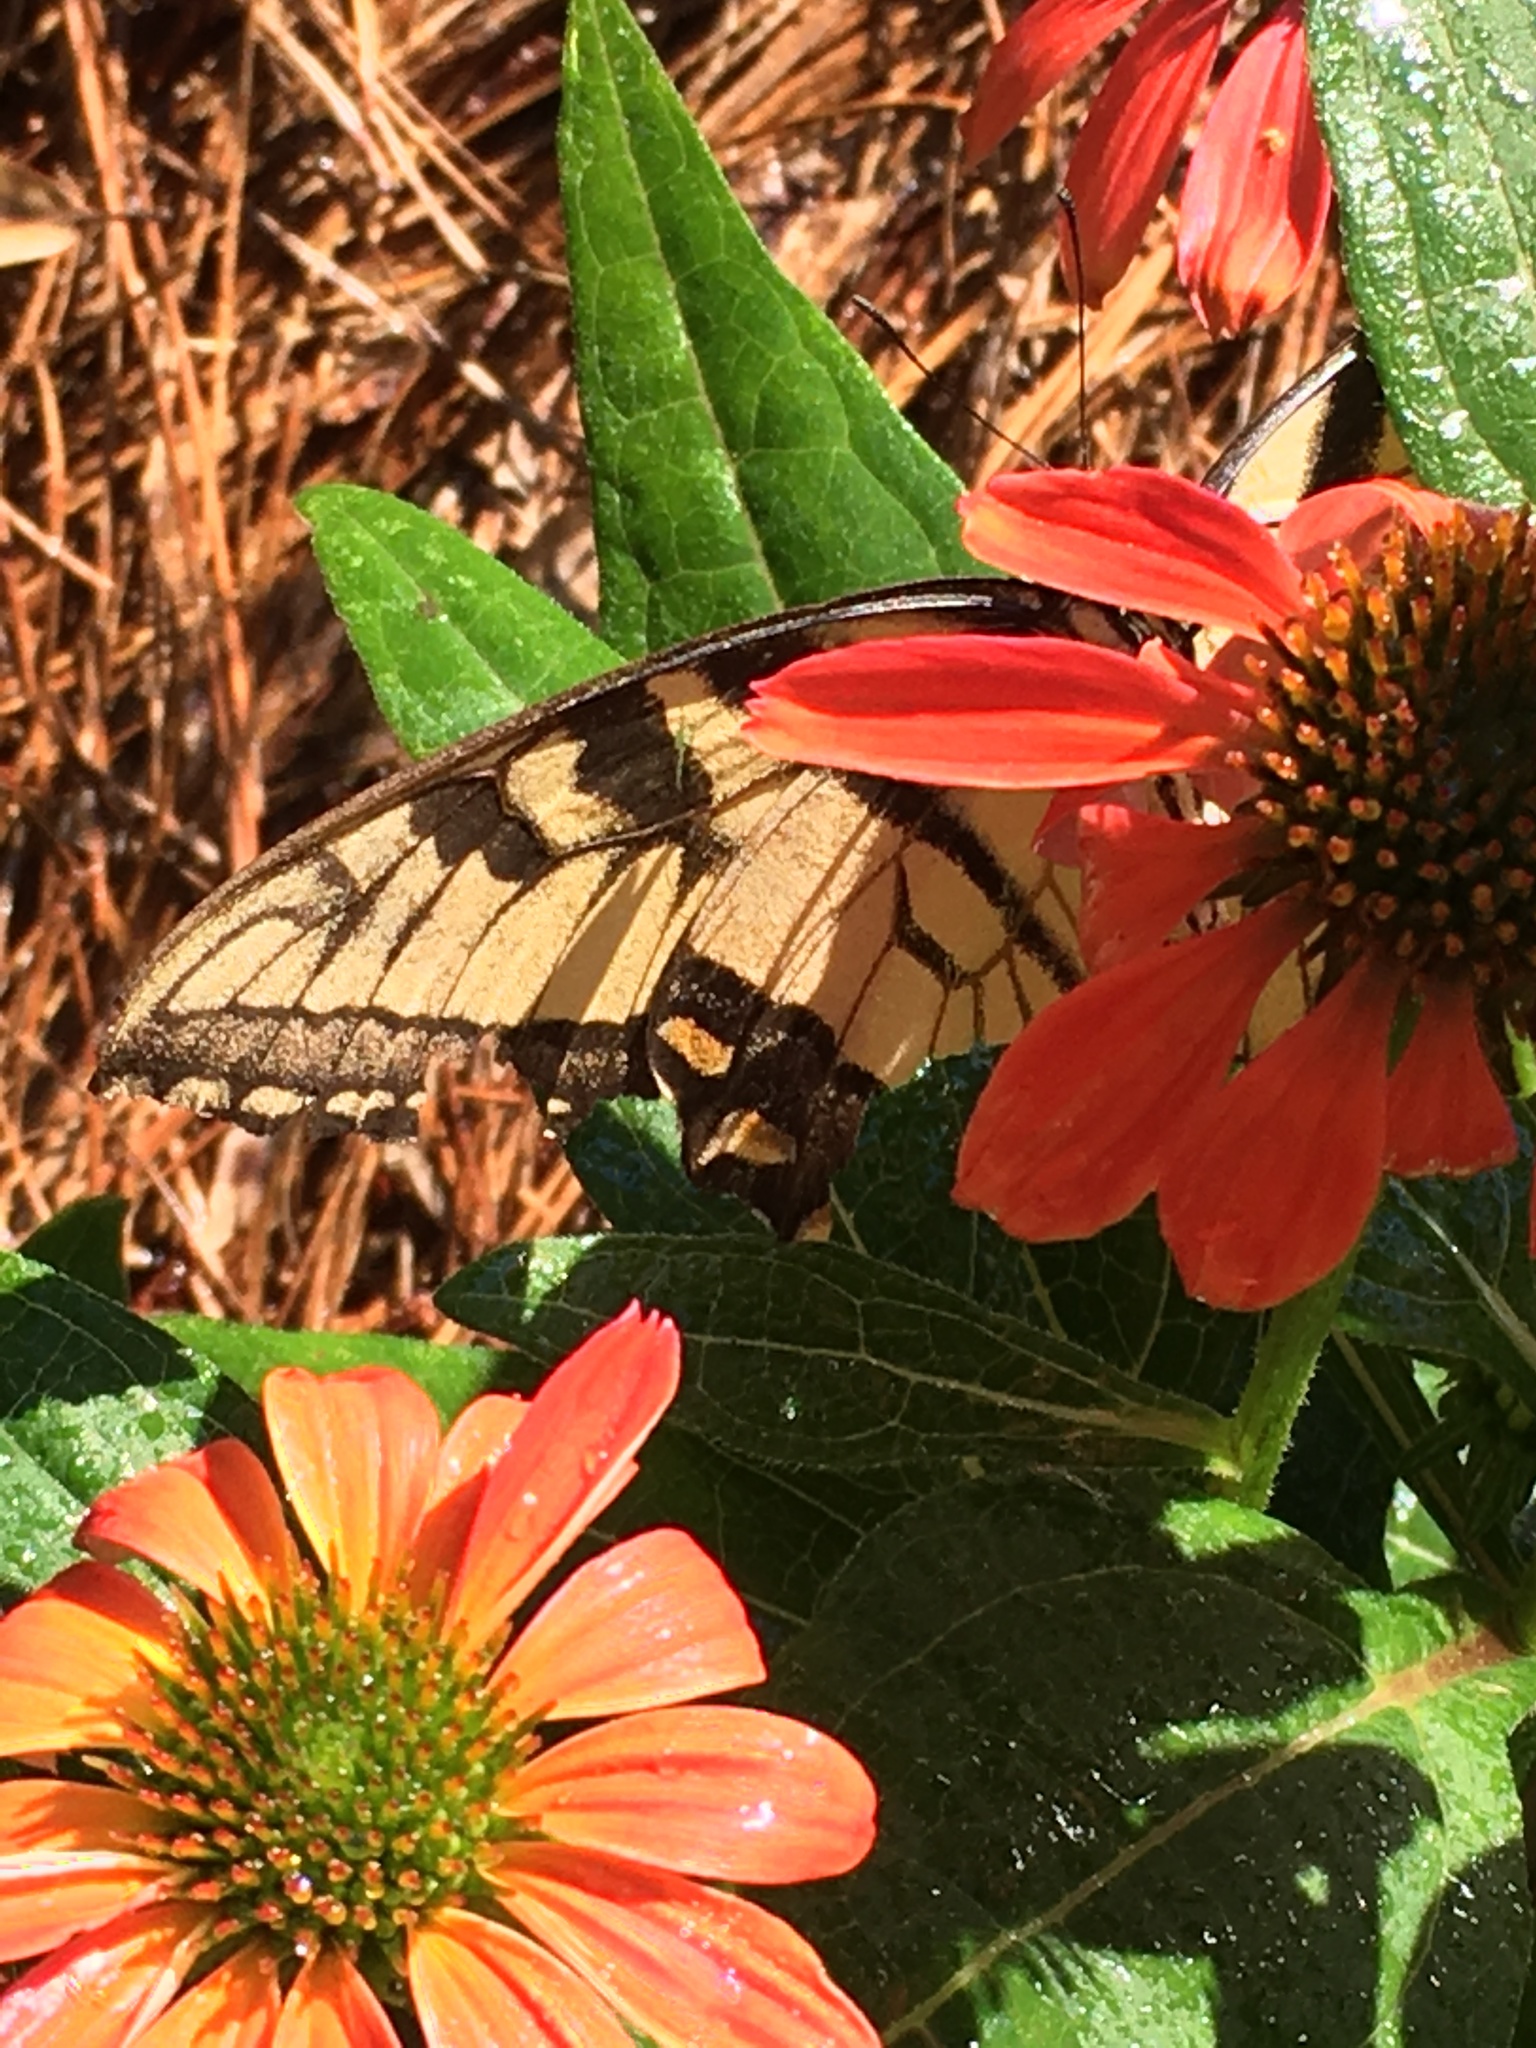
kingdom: Animalia
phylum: Arthropoda
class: Insecta
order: Lepidoptera
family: Papilionidae
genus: Papilio
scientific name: Papilio glaucus
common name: Tiger swallowtail
